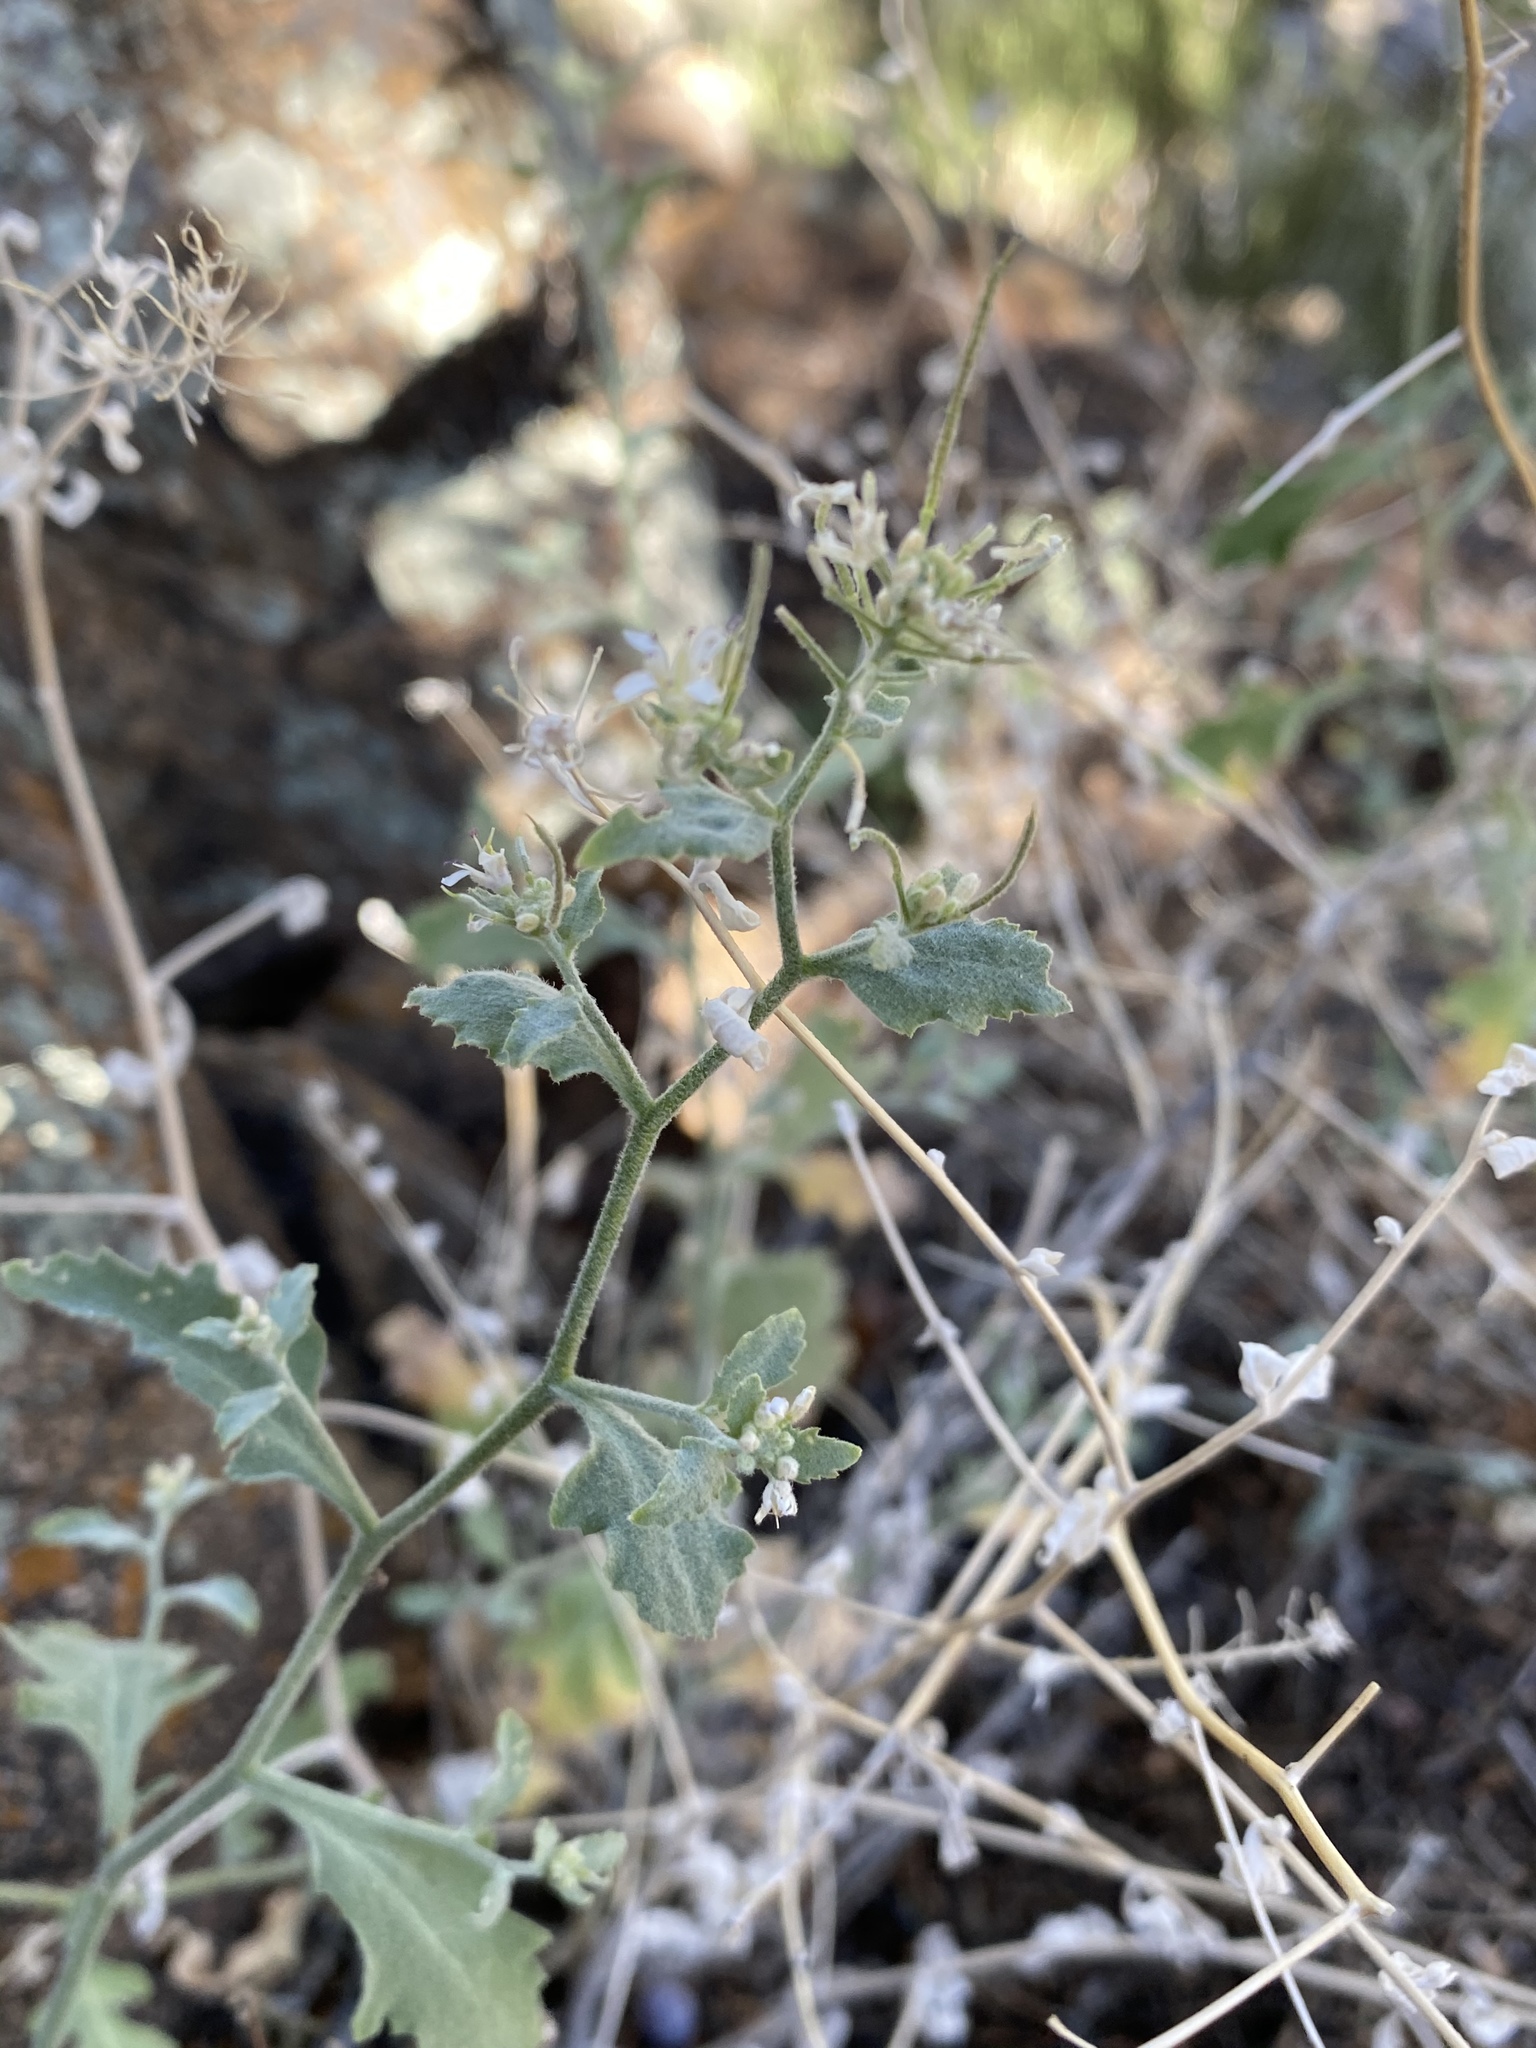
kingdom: Plantae
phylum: Tracheophyta
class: Magnoliopsida
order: Brassicales
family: Brassicaceae
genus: Halimolobos
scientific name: Halimolobos jaegeri
